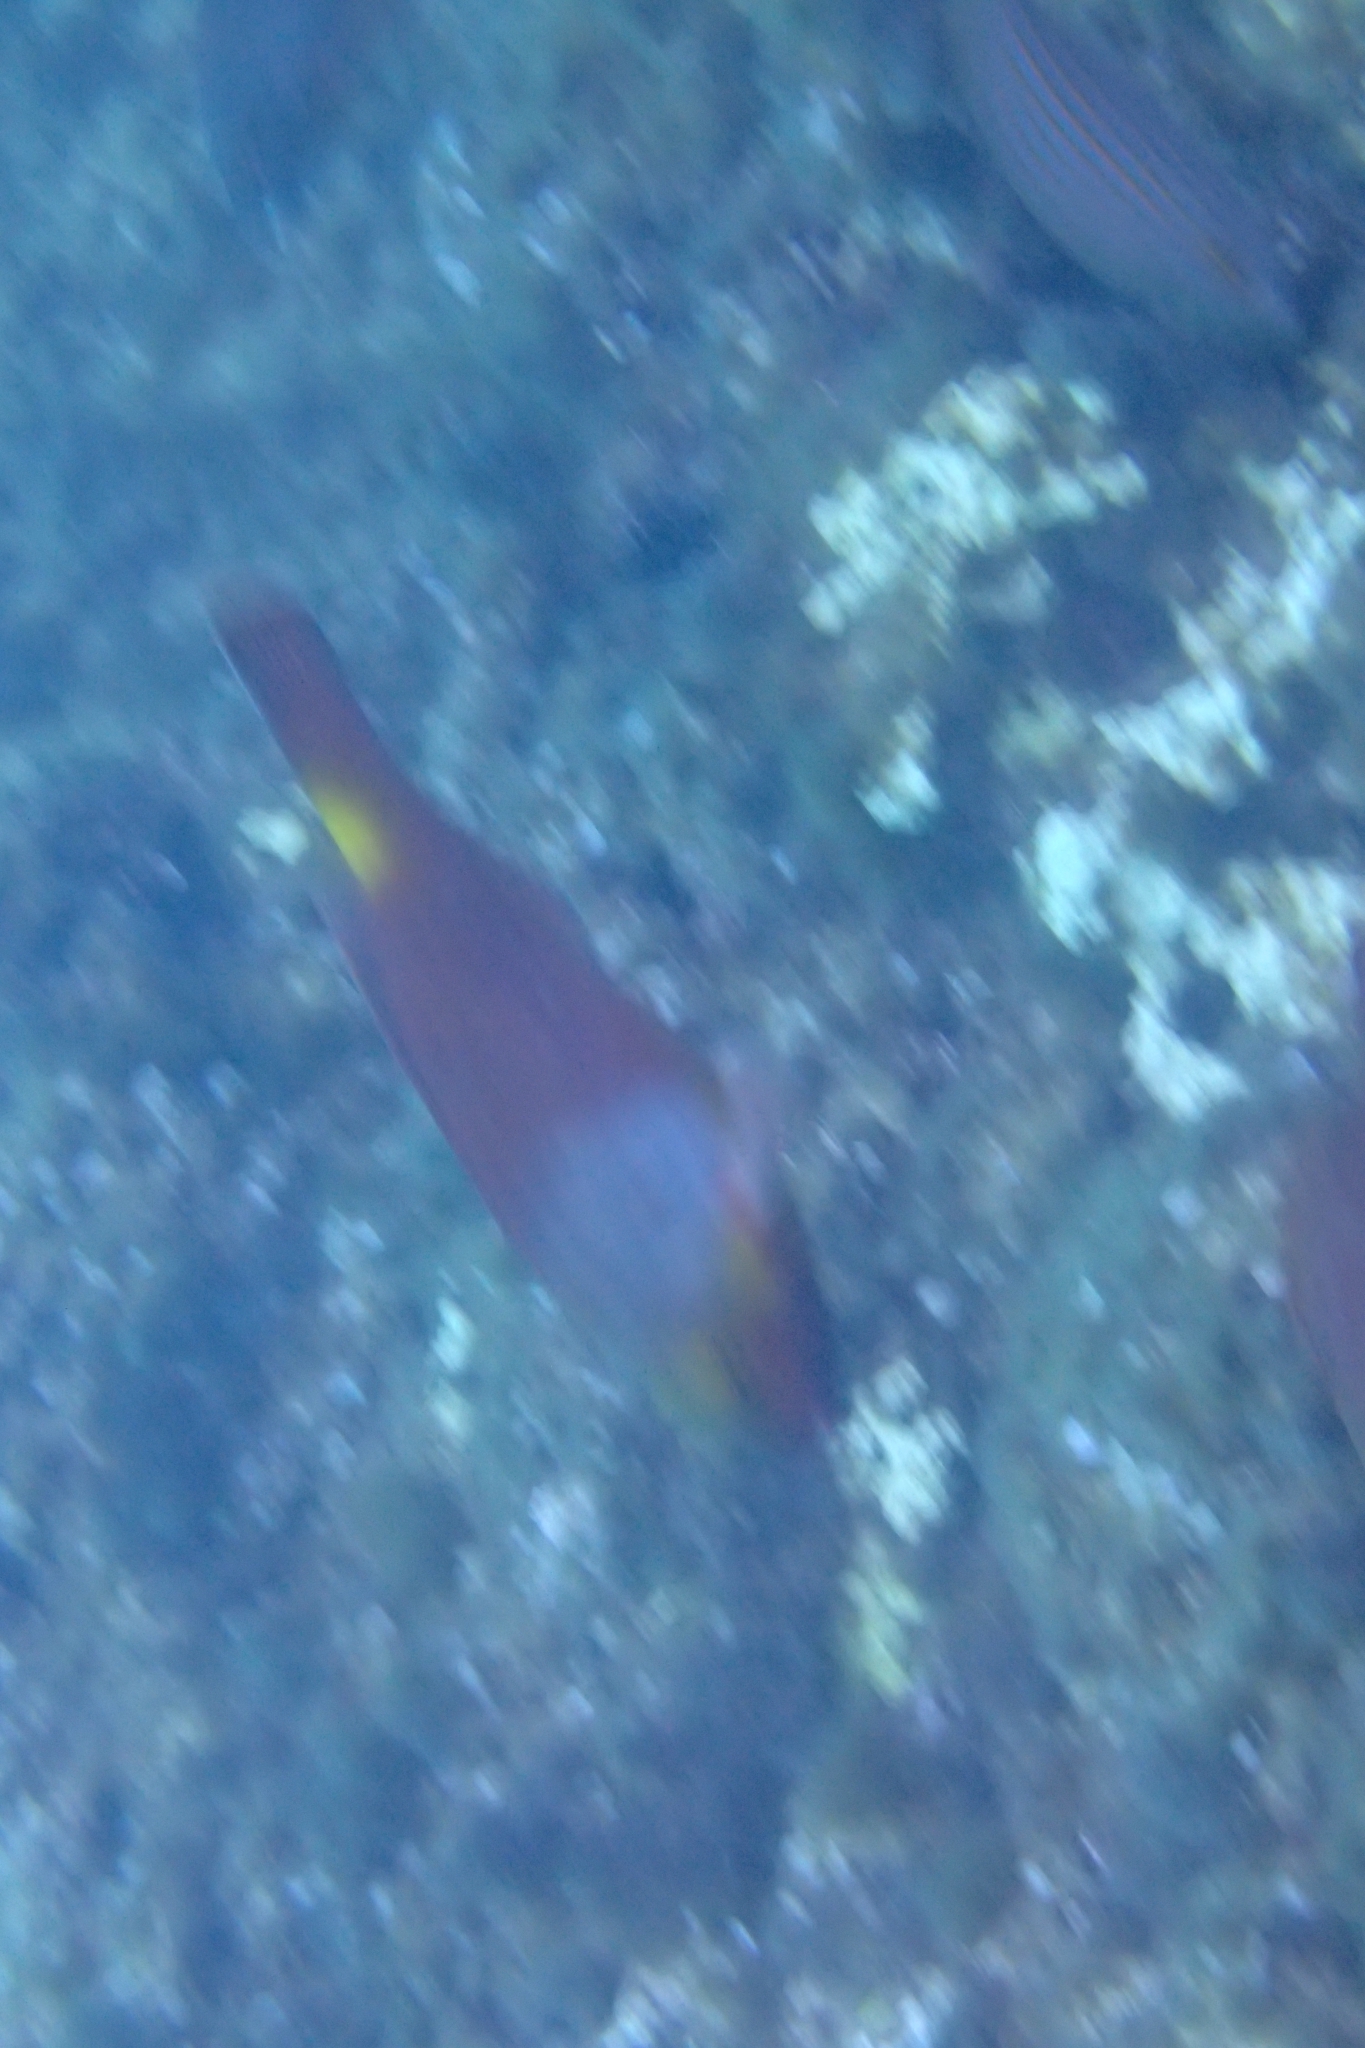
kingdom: Animalia
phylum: Chordata
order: Perciformes
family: Scaridae
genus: Sparisoma
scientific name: Sparisoma cretense
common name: Parrotfish
